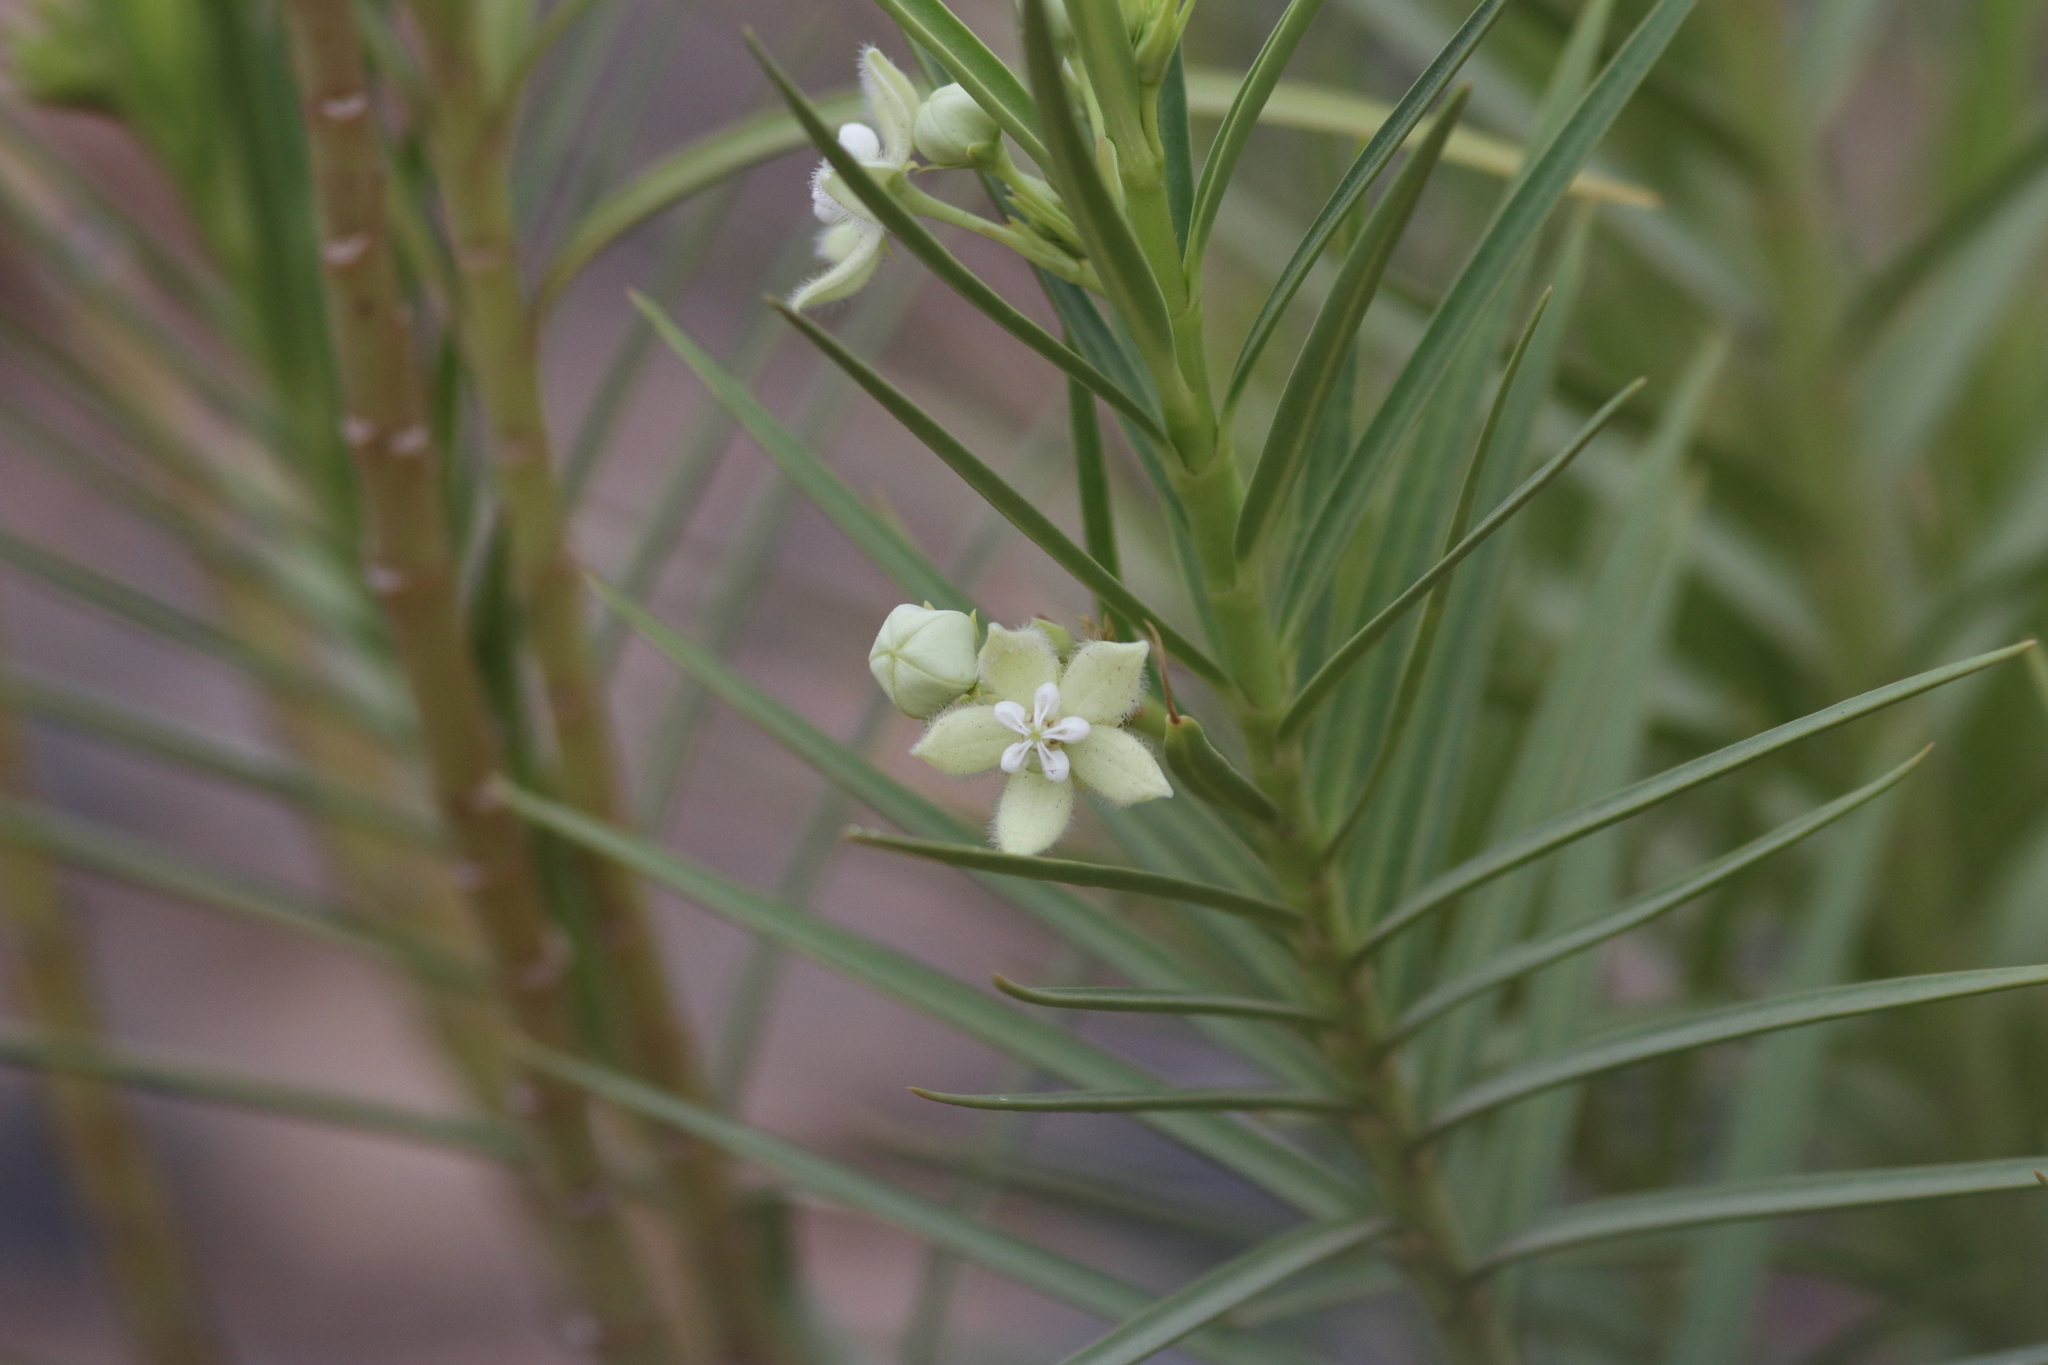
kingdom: Plantae
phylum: Tracheophyta
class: Magnoliopsida
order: Gentianales
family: Apocynaceae
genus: Kanahia
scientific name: Kanahia laniflora
